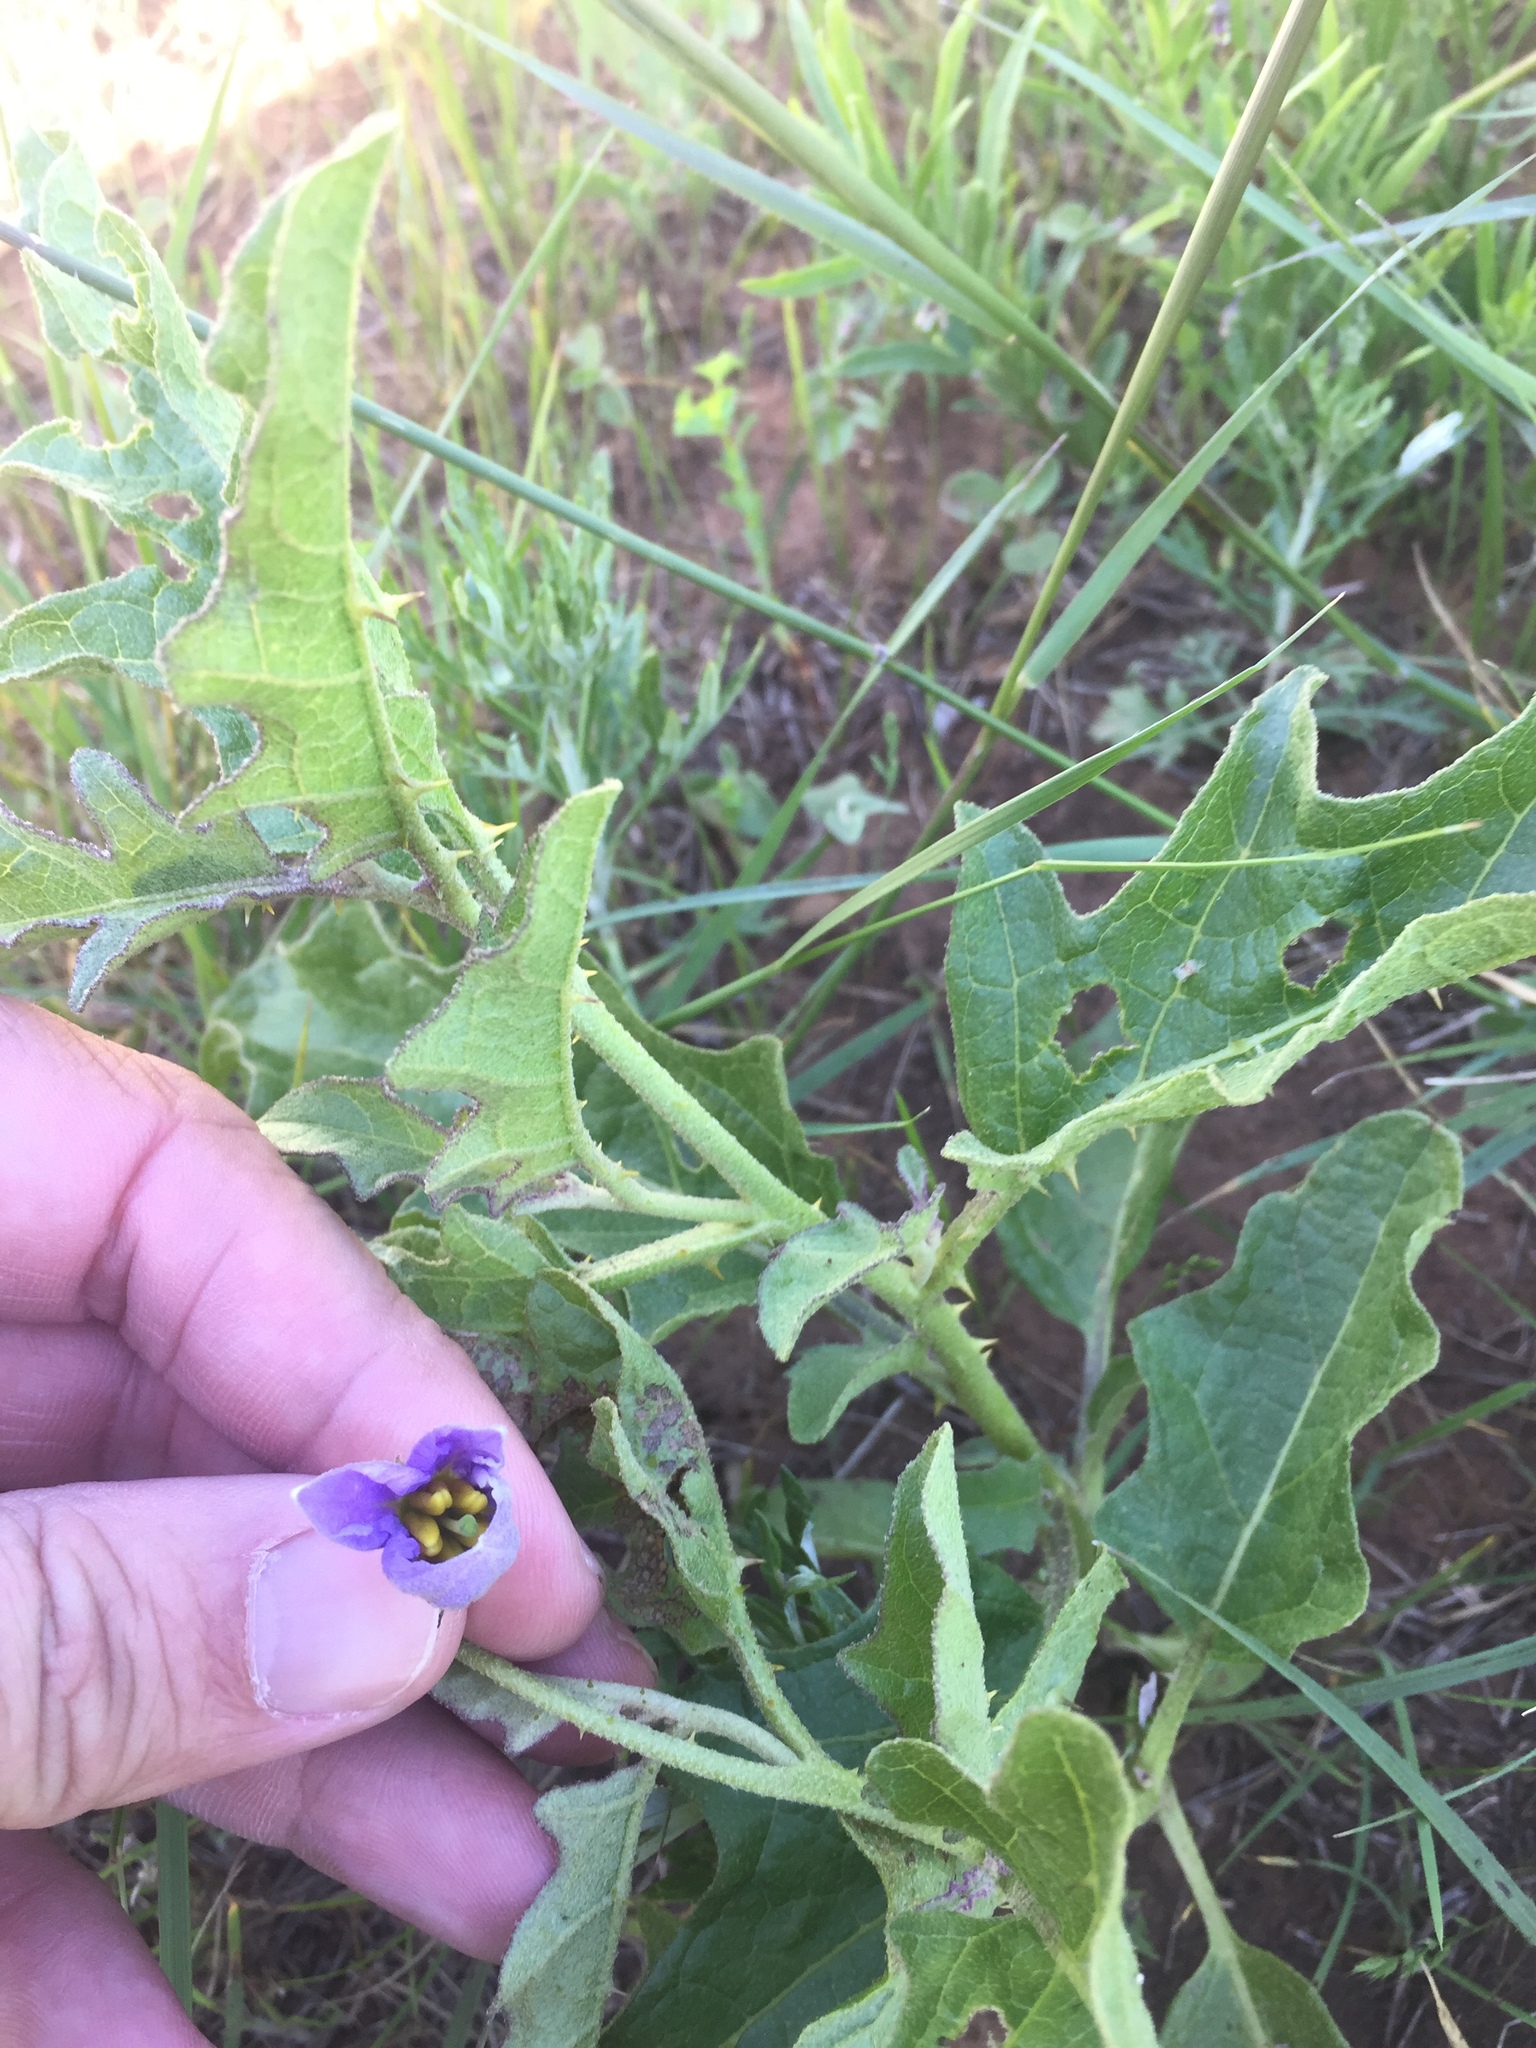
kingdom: Plantae
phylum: Tracheophyta
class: Magnoliopsida
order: Solanales
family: Solanaceae
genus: Solanum
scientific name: Solanum dimidiatum
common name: Carolina horse-nettle
